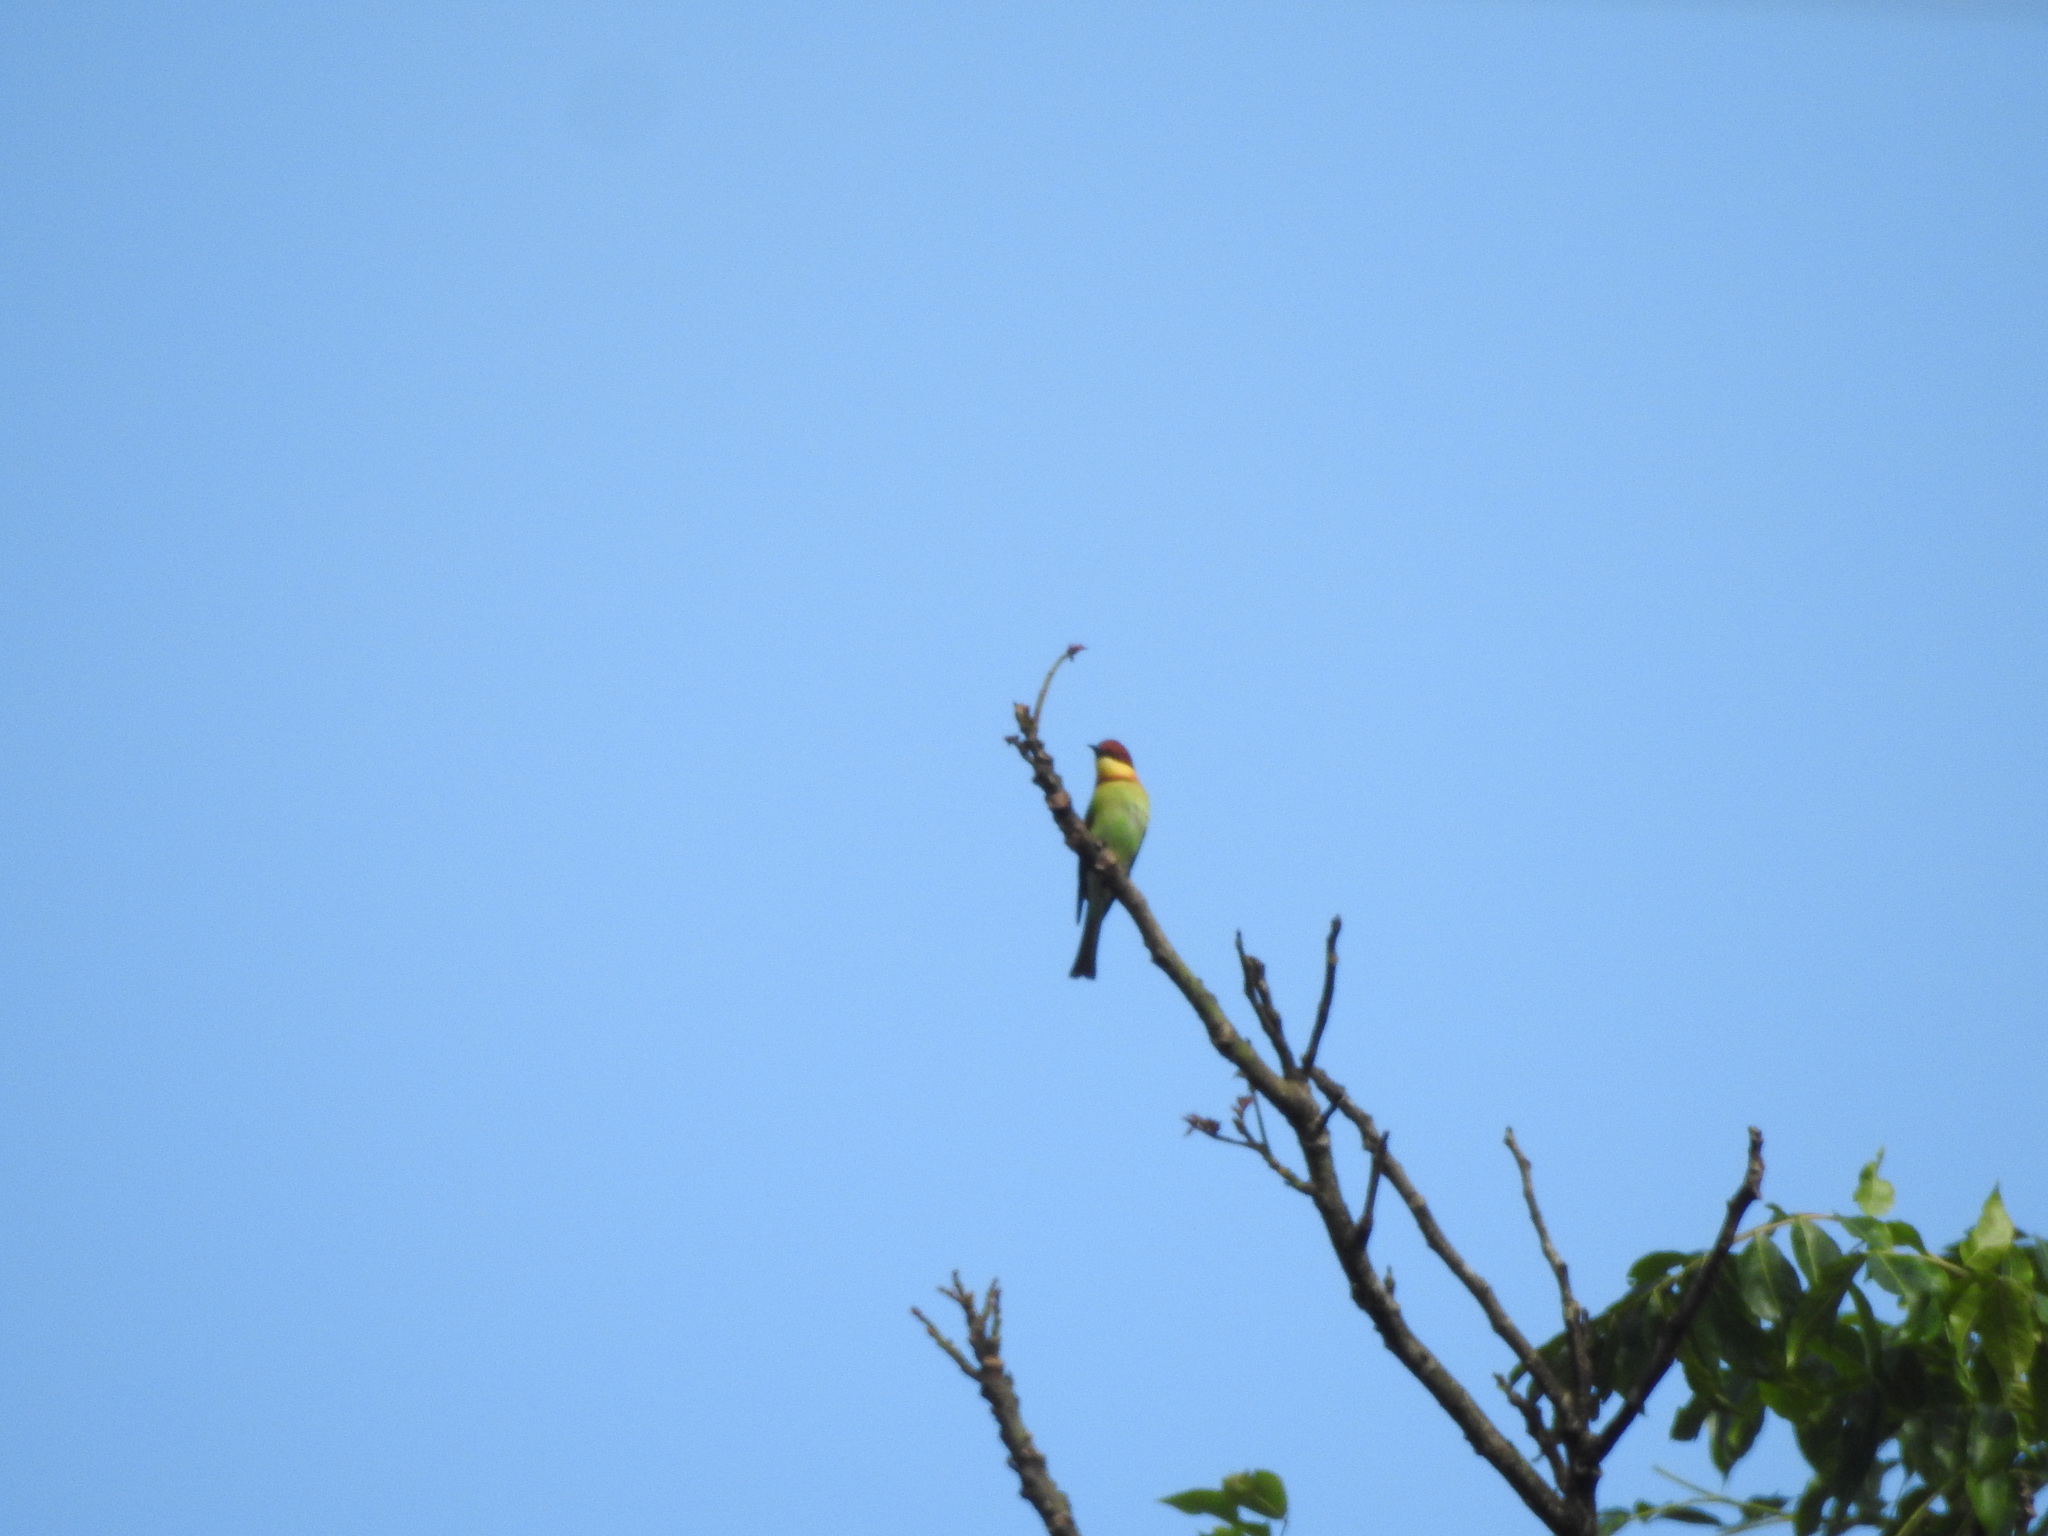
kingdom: Animalia
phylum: Chordata
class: Aves
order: Coraciiformes
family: Meropidae
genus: Merops
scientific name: Merops leschenaulti
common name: Chestnut-headed bee-eater
